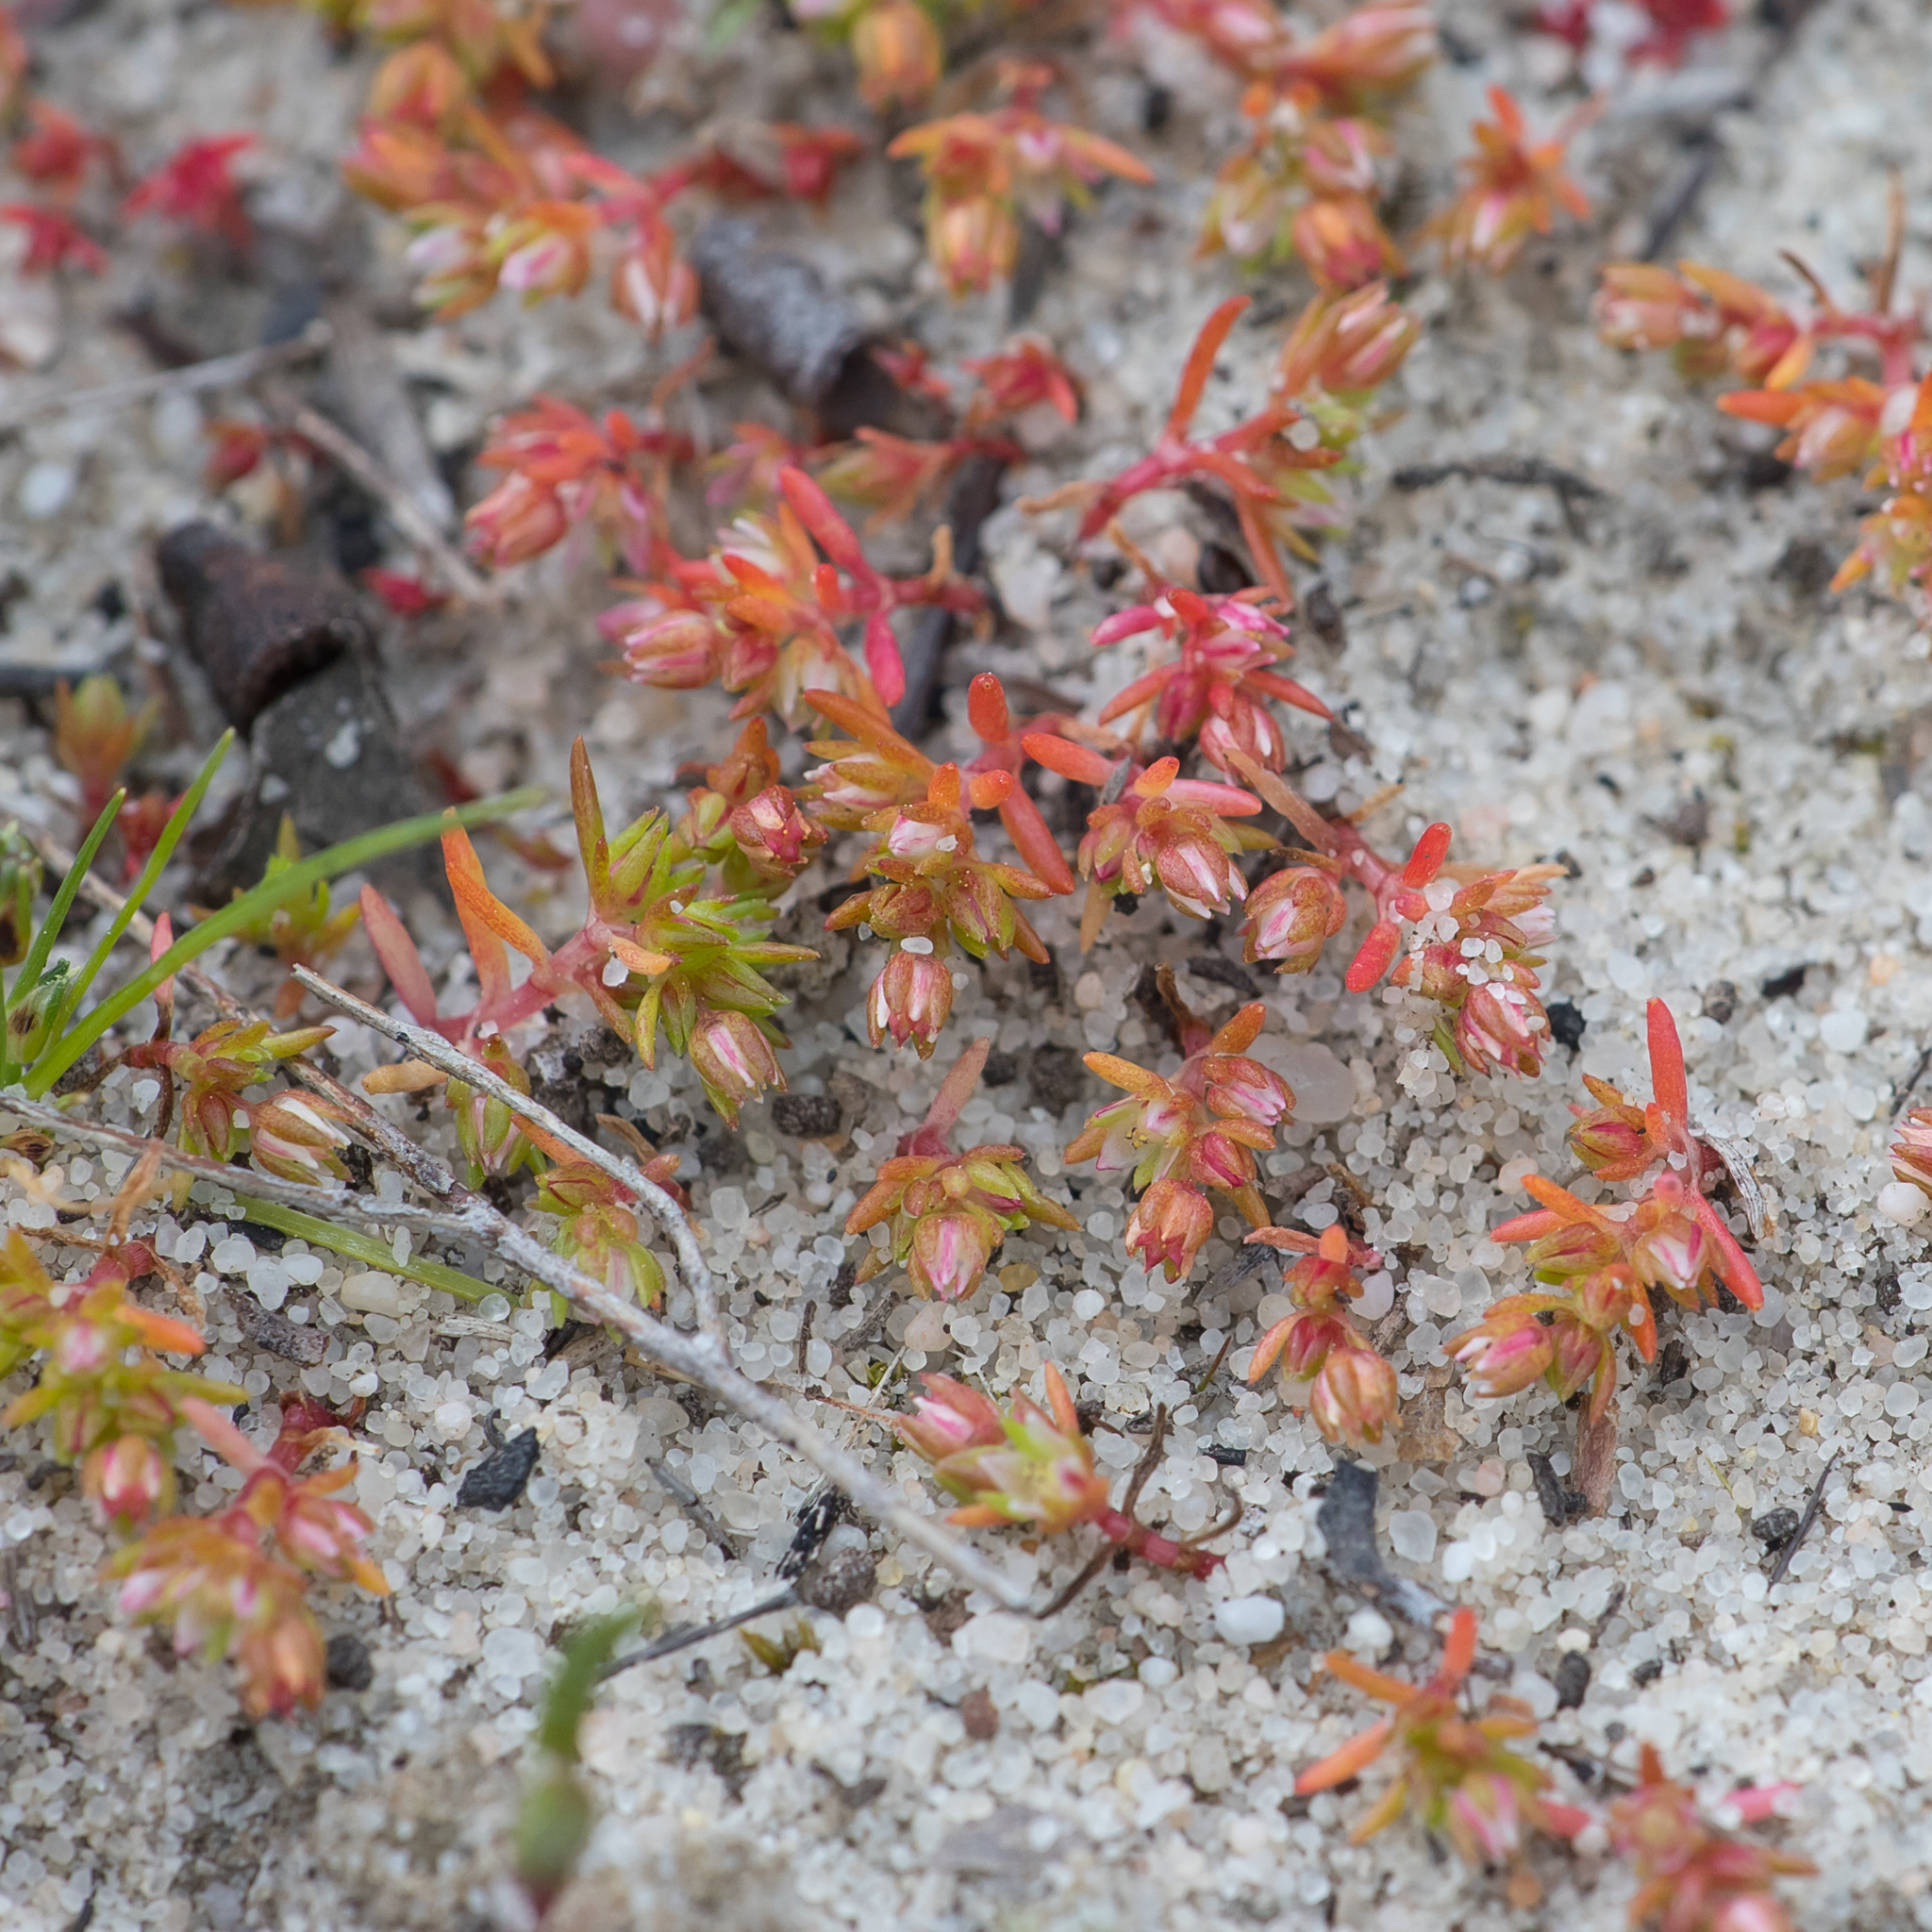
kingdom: Plantae
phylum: Tracheophyta
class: Magnoliopsida
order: Saxifragales
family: Crassulaceae
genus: Crassula
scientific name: Crassula decumbens
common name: Scilly pigmyweed
